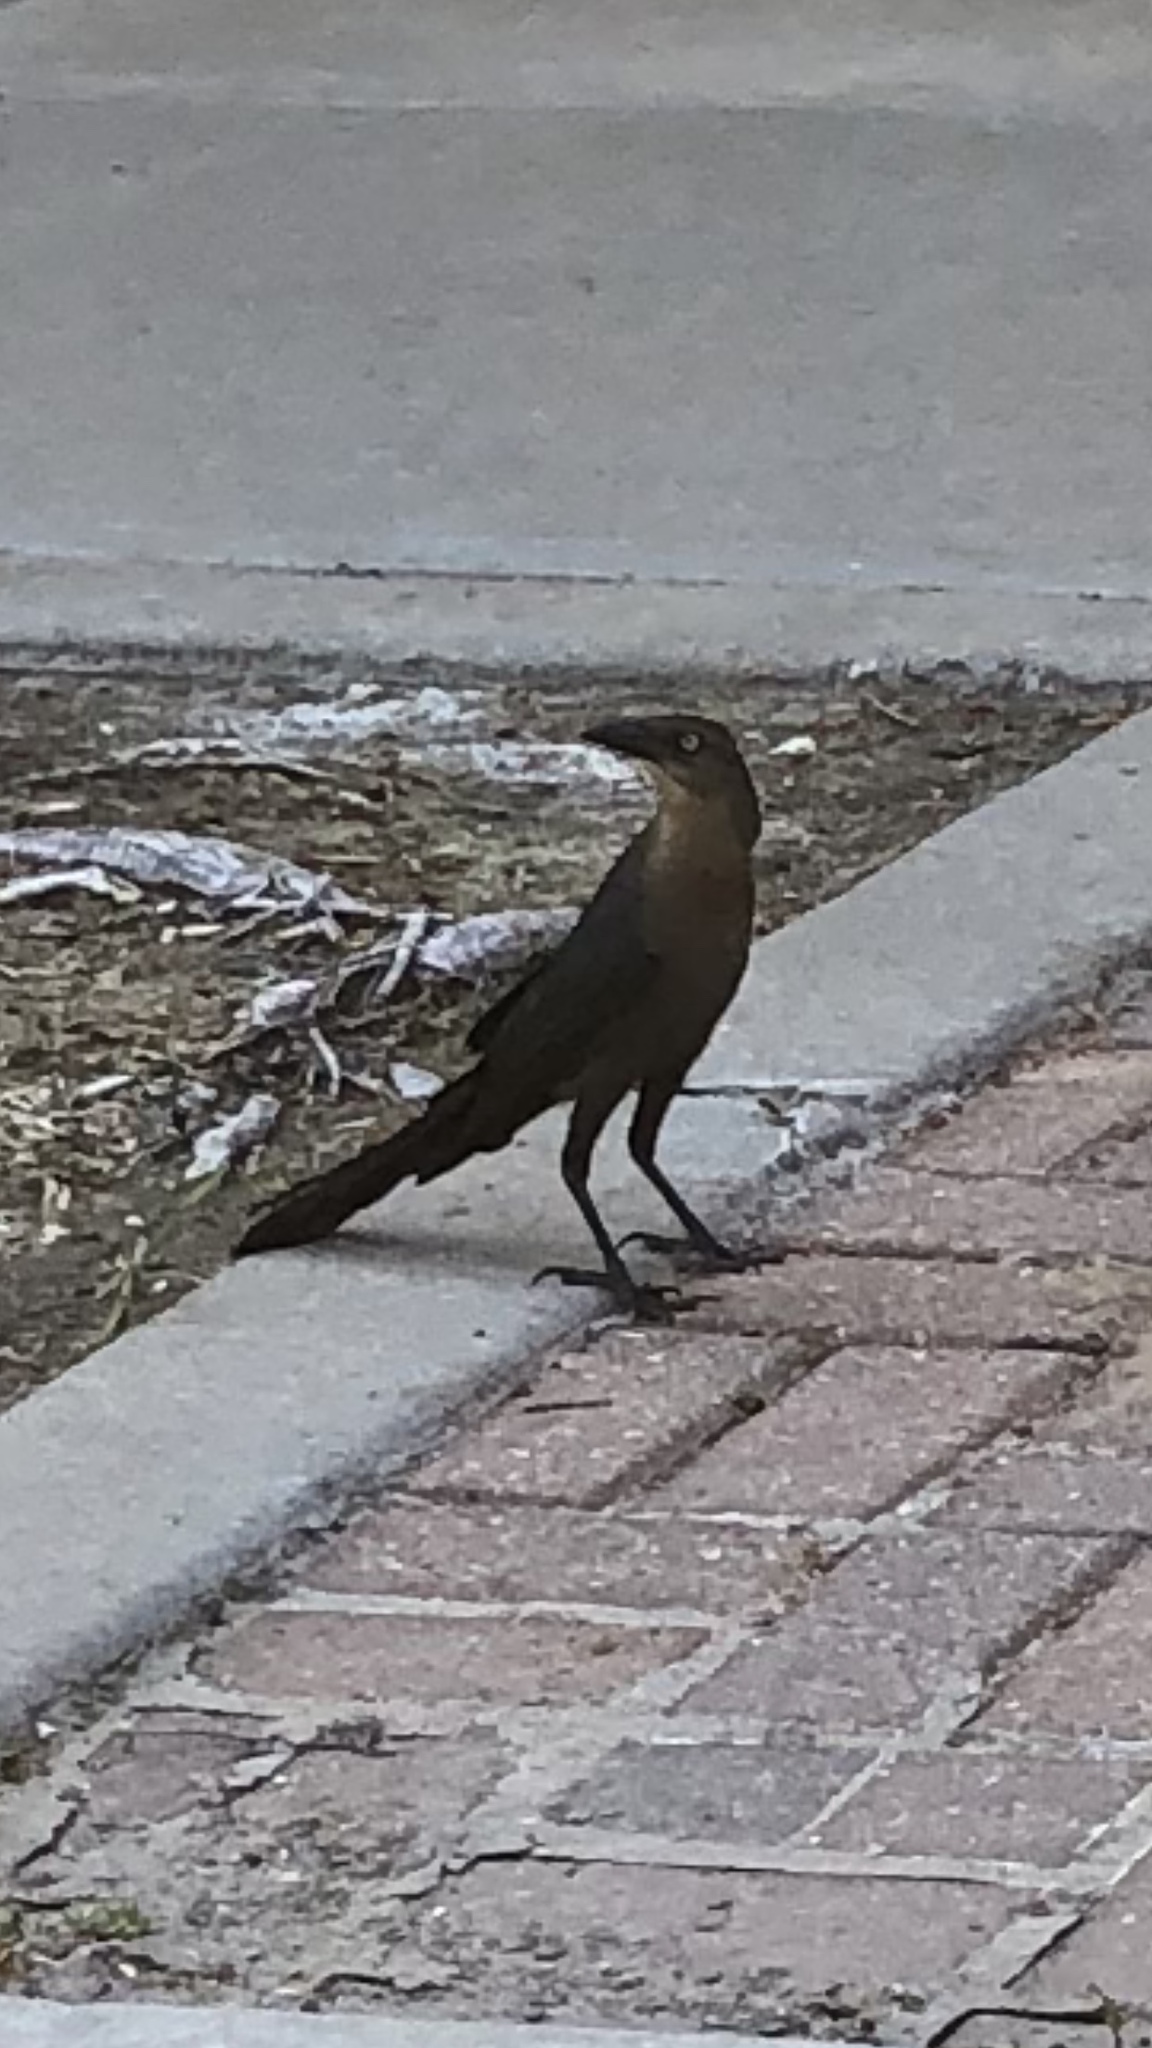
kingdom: Animalia
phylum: Chordata
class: Aves
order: Passeriformes
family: Icteridae
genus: Quiscalus
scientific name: Quiscalus mexicanus
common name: Great-tailed grackle
